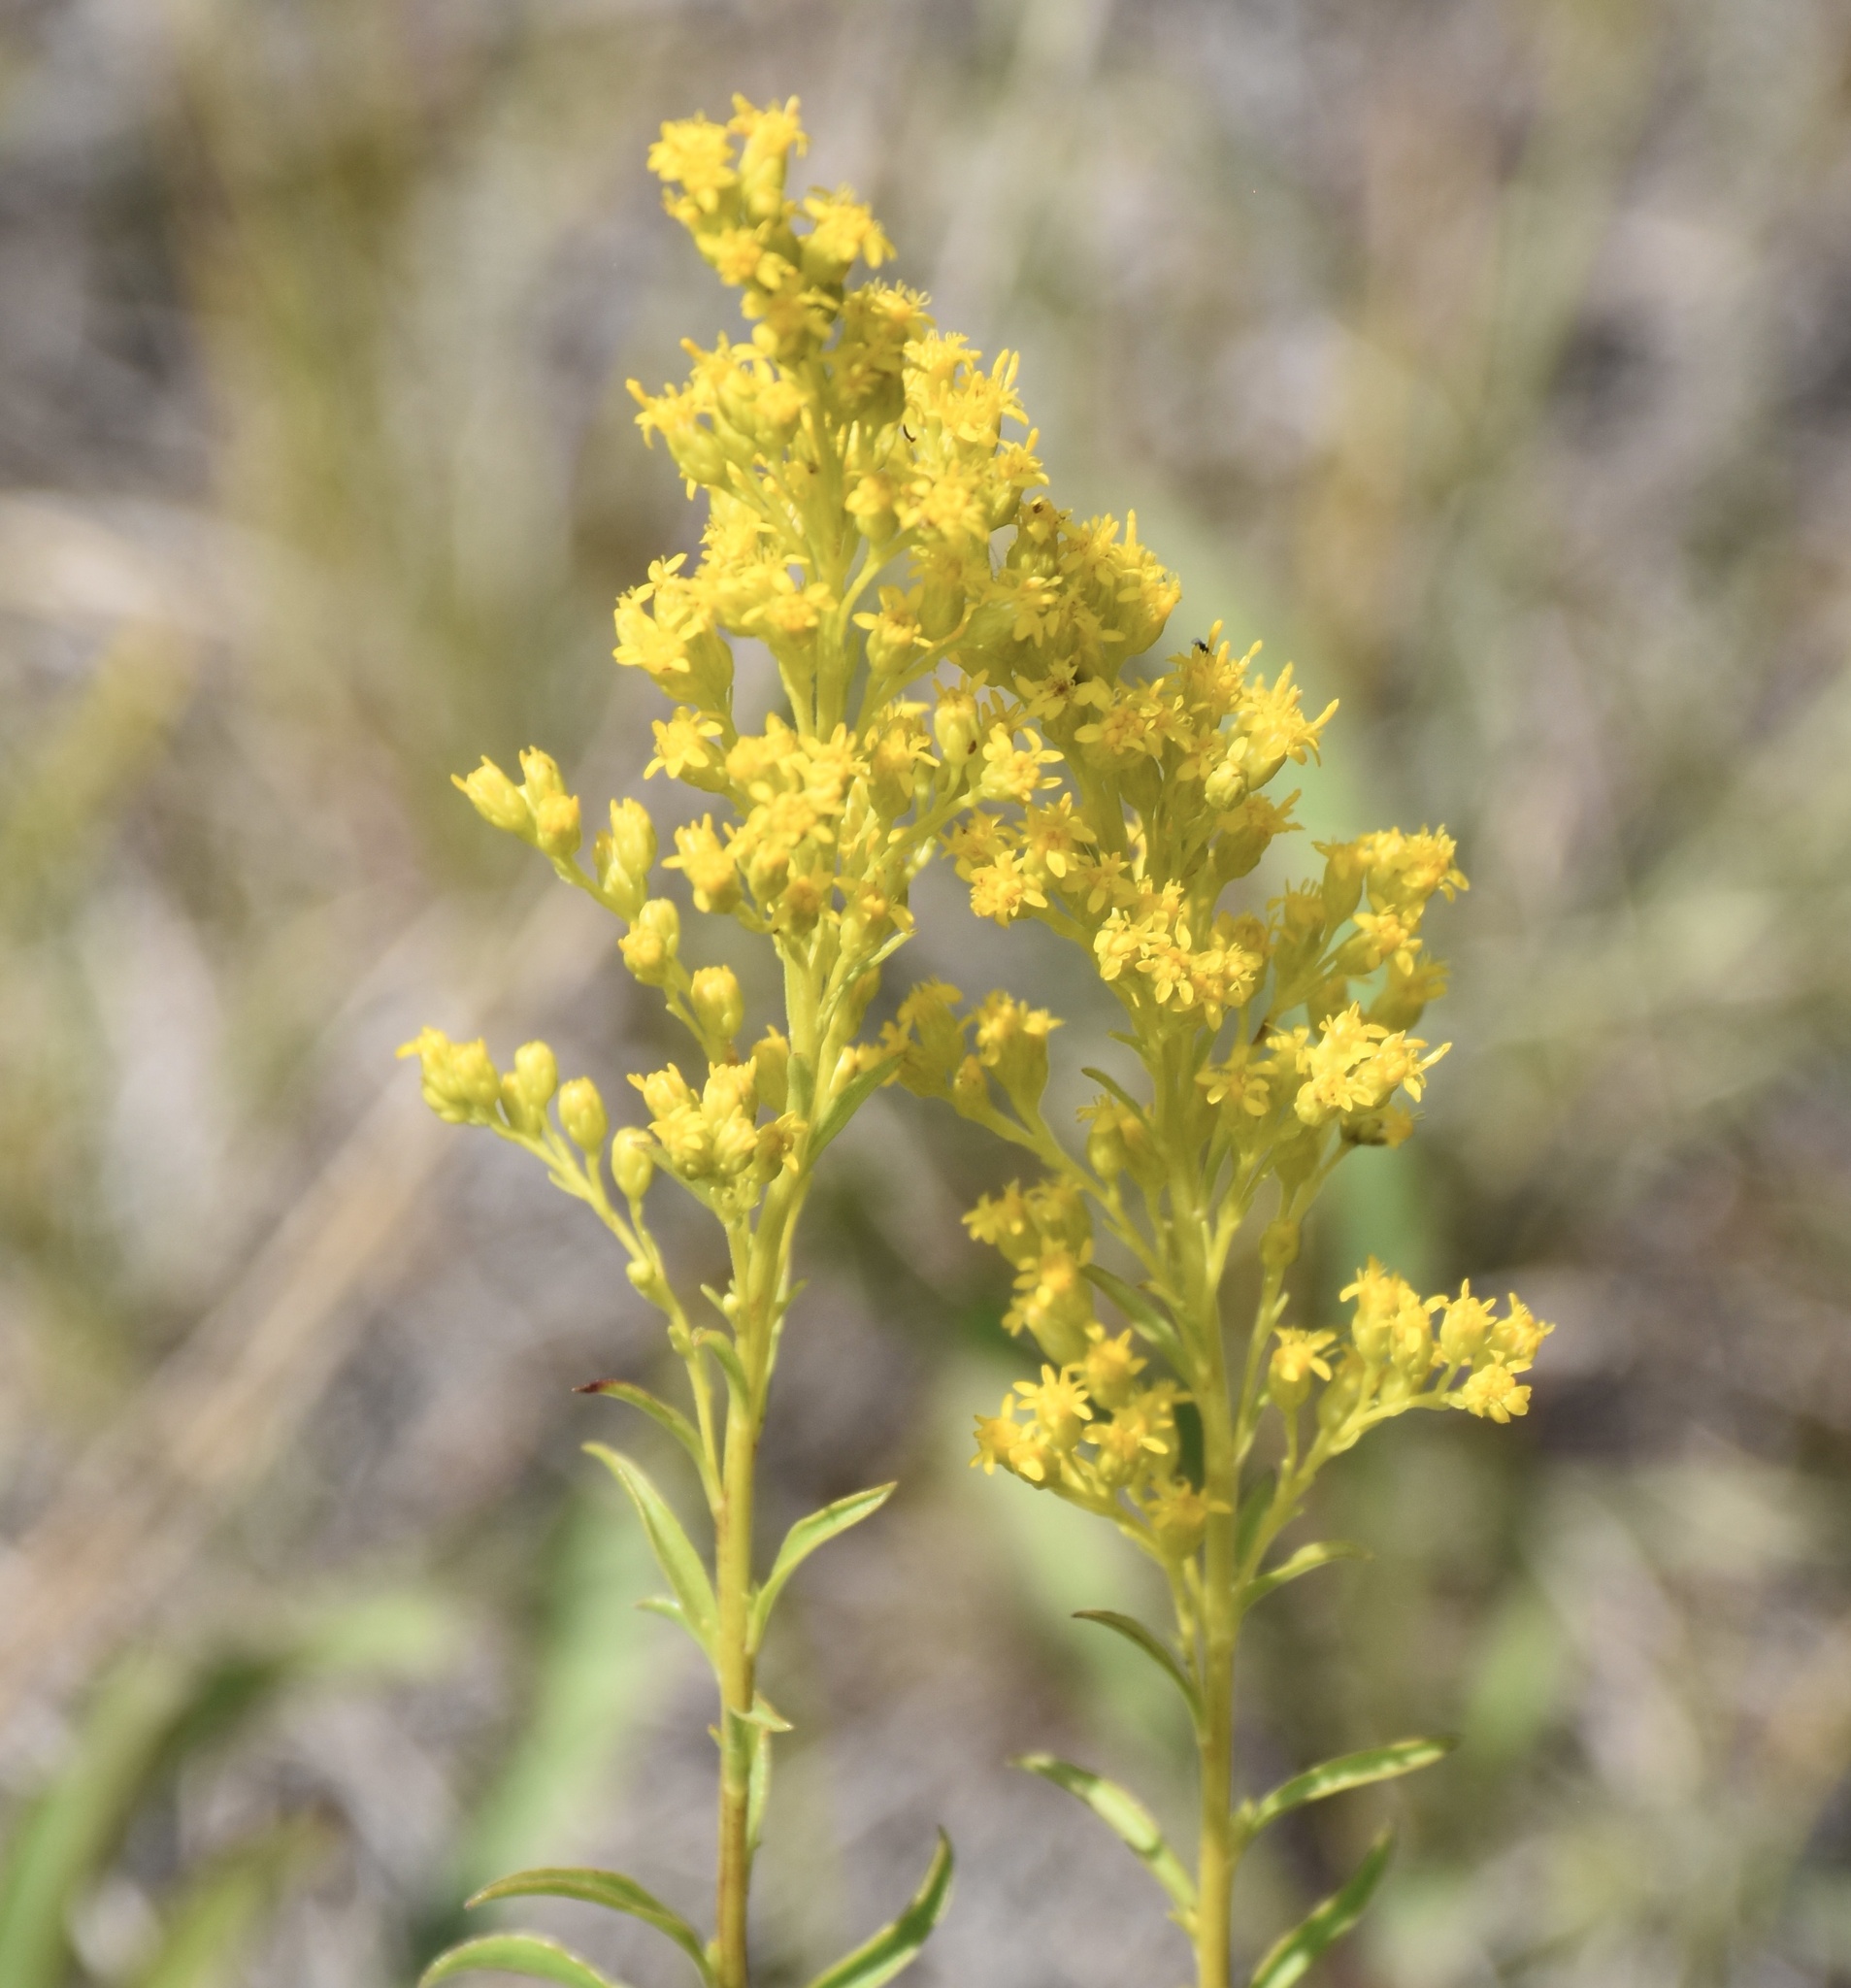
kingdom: Plantae
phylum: Tracheophyta
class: Magnoliopsida
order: Asterales
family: Asteraceae
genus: Solidago
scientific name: Solidago missouriensis
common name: Prairie goldenrod
